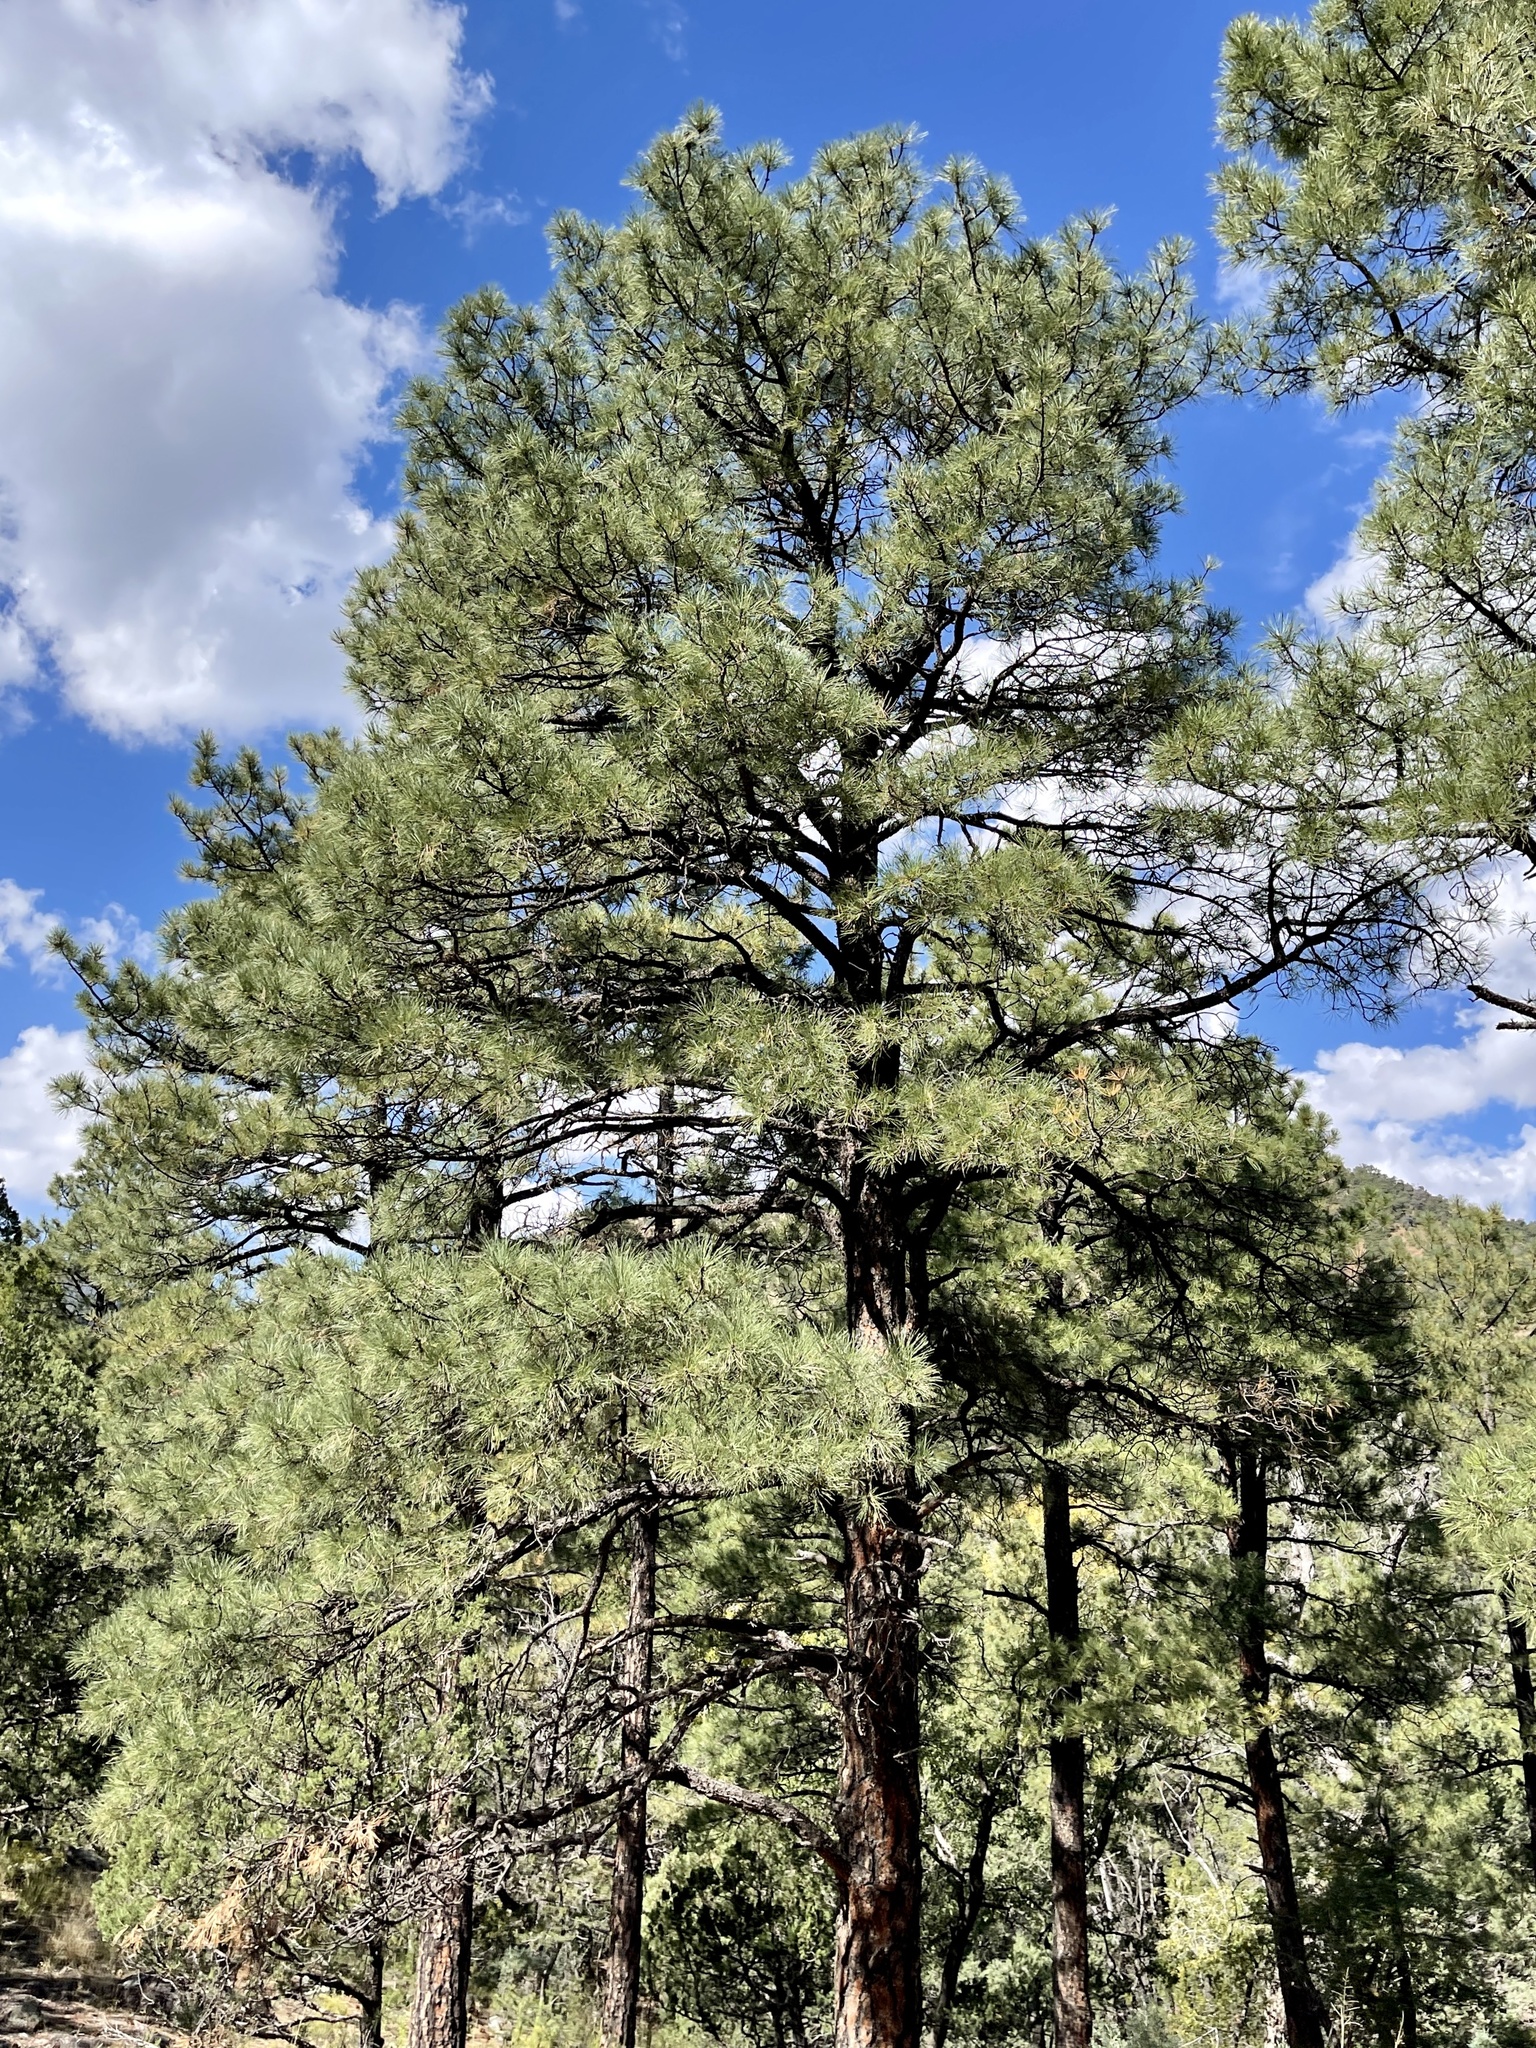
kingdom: Plantae
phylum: Tracheophyta
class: Pinopsida
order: Pinales
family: Pinaceae
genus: Pinus
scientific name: Pinus ponderosa
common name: Western yellow-pine
